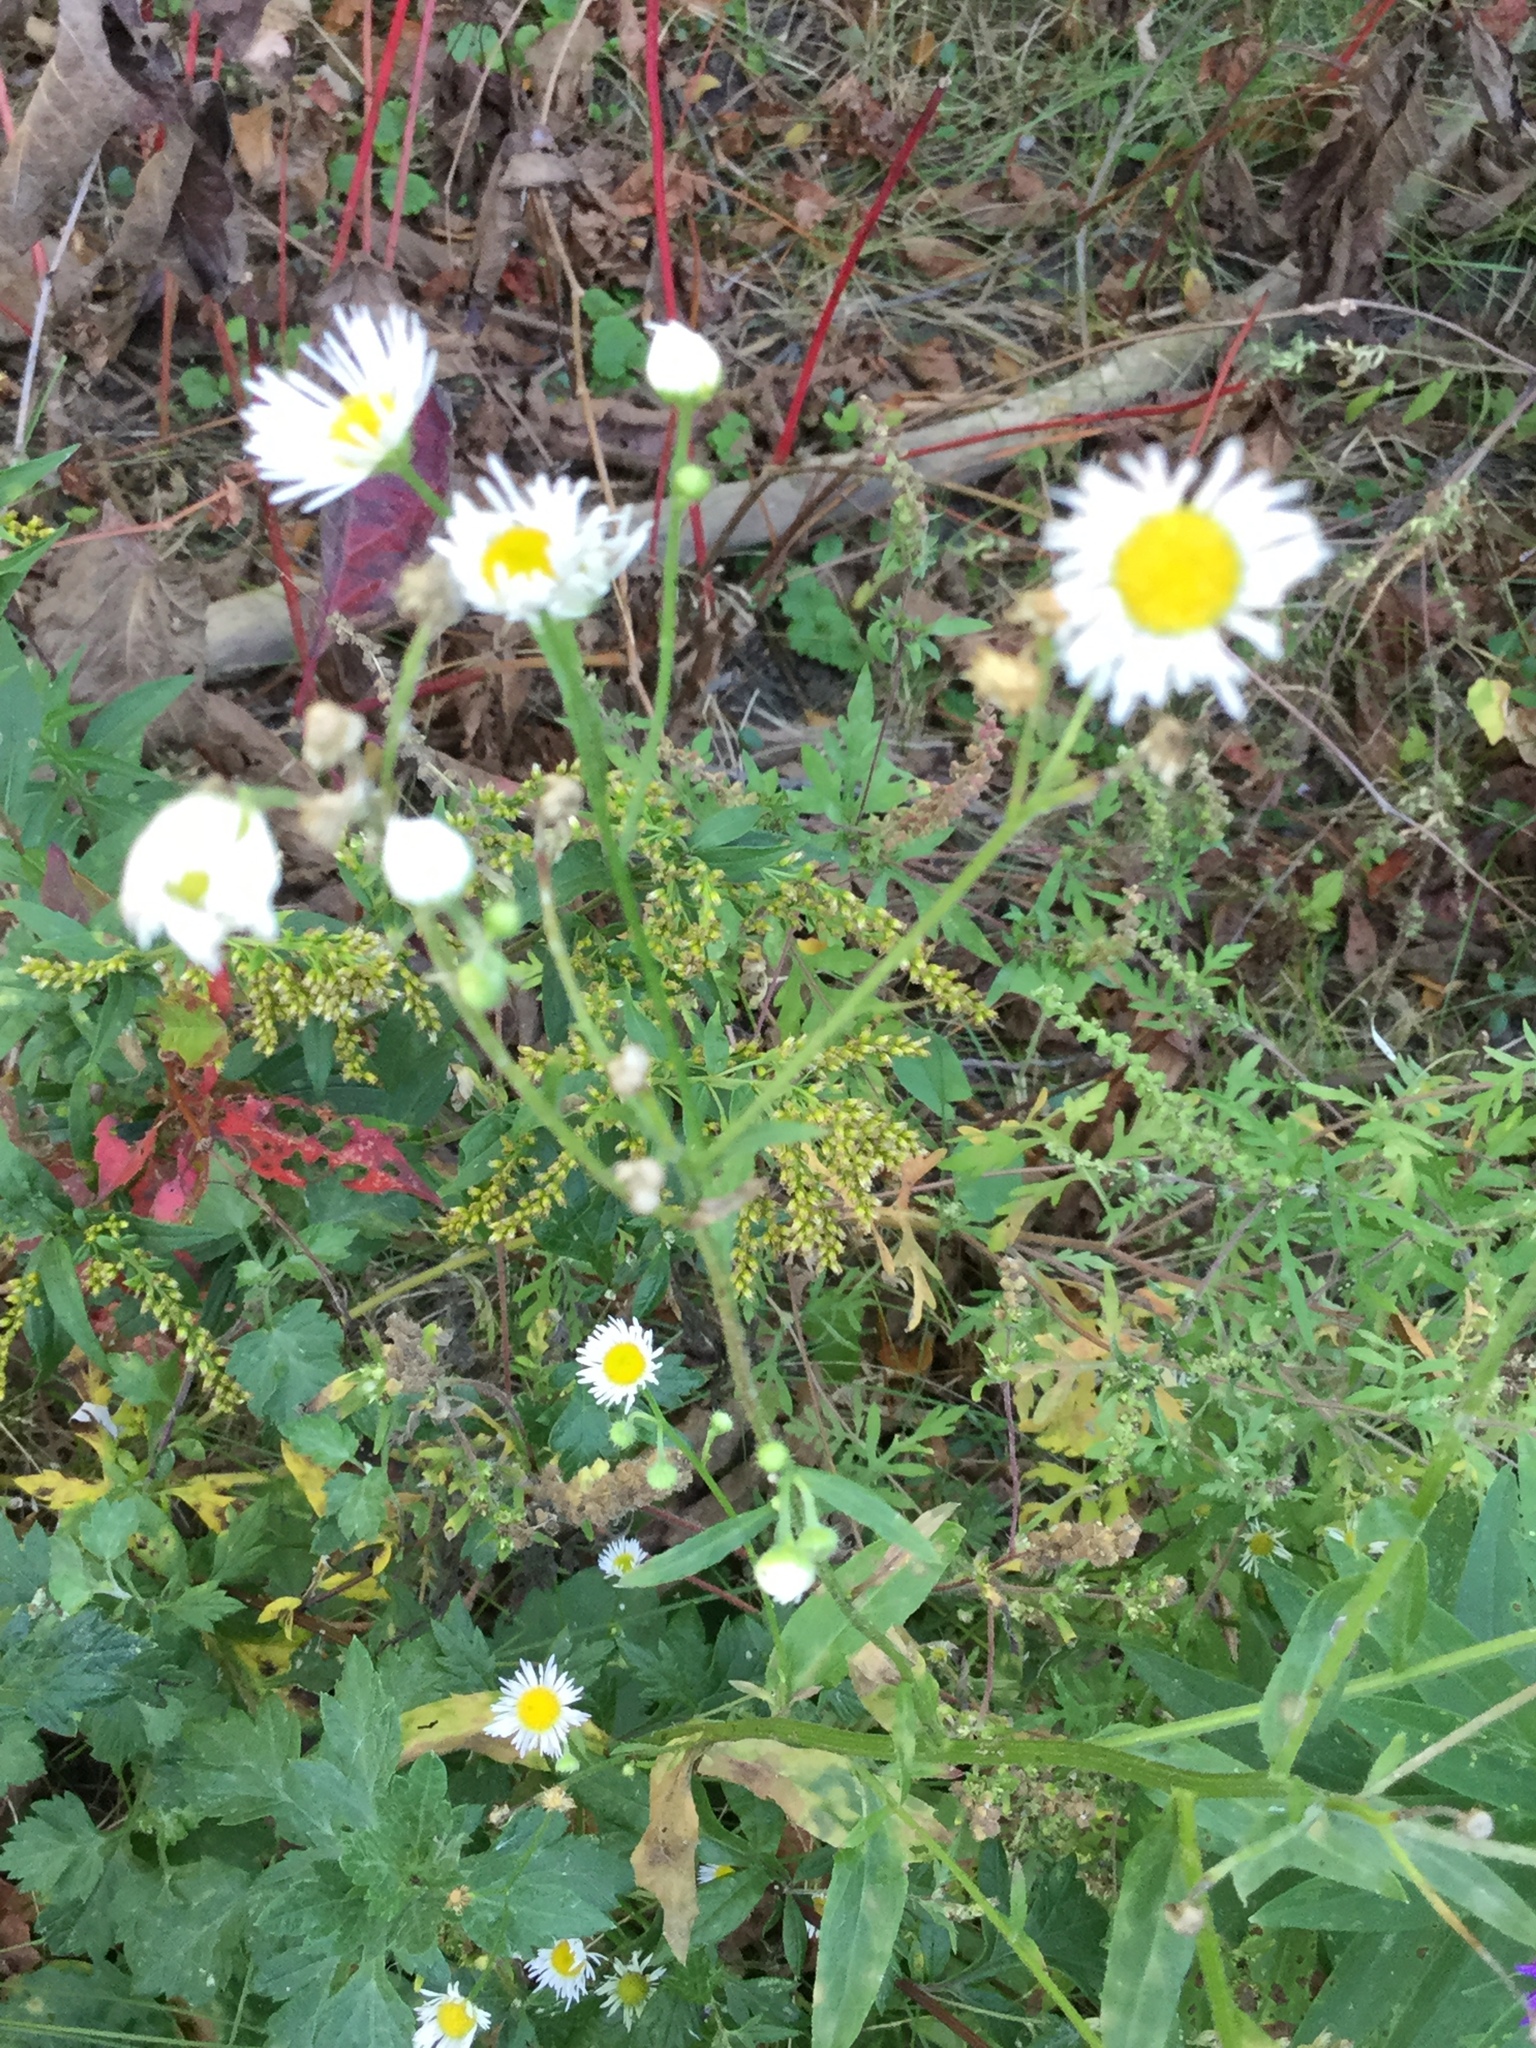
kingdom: Plantae
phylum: Tracheophyta
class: Magnoliopsida
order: Asterales
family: Asteraceae
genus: Erigeron
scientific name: Erigeron strigosus
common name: Common eastern fleabane
